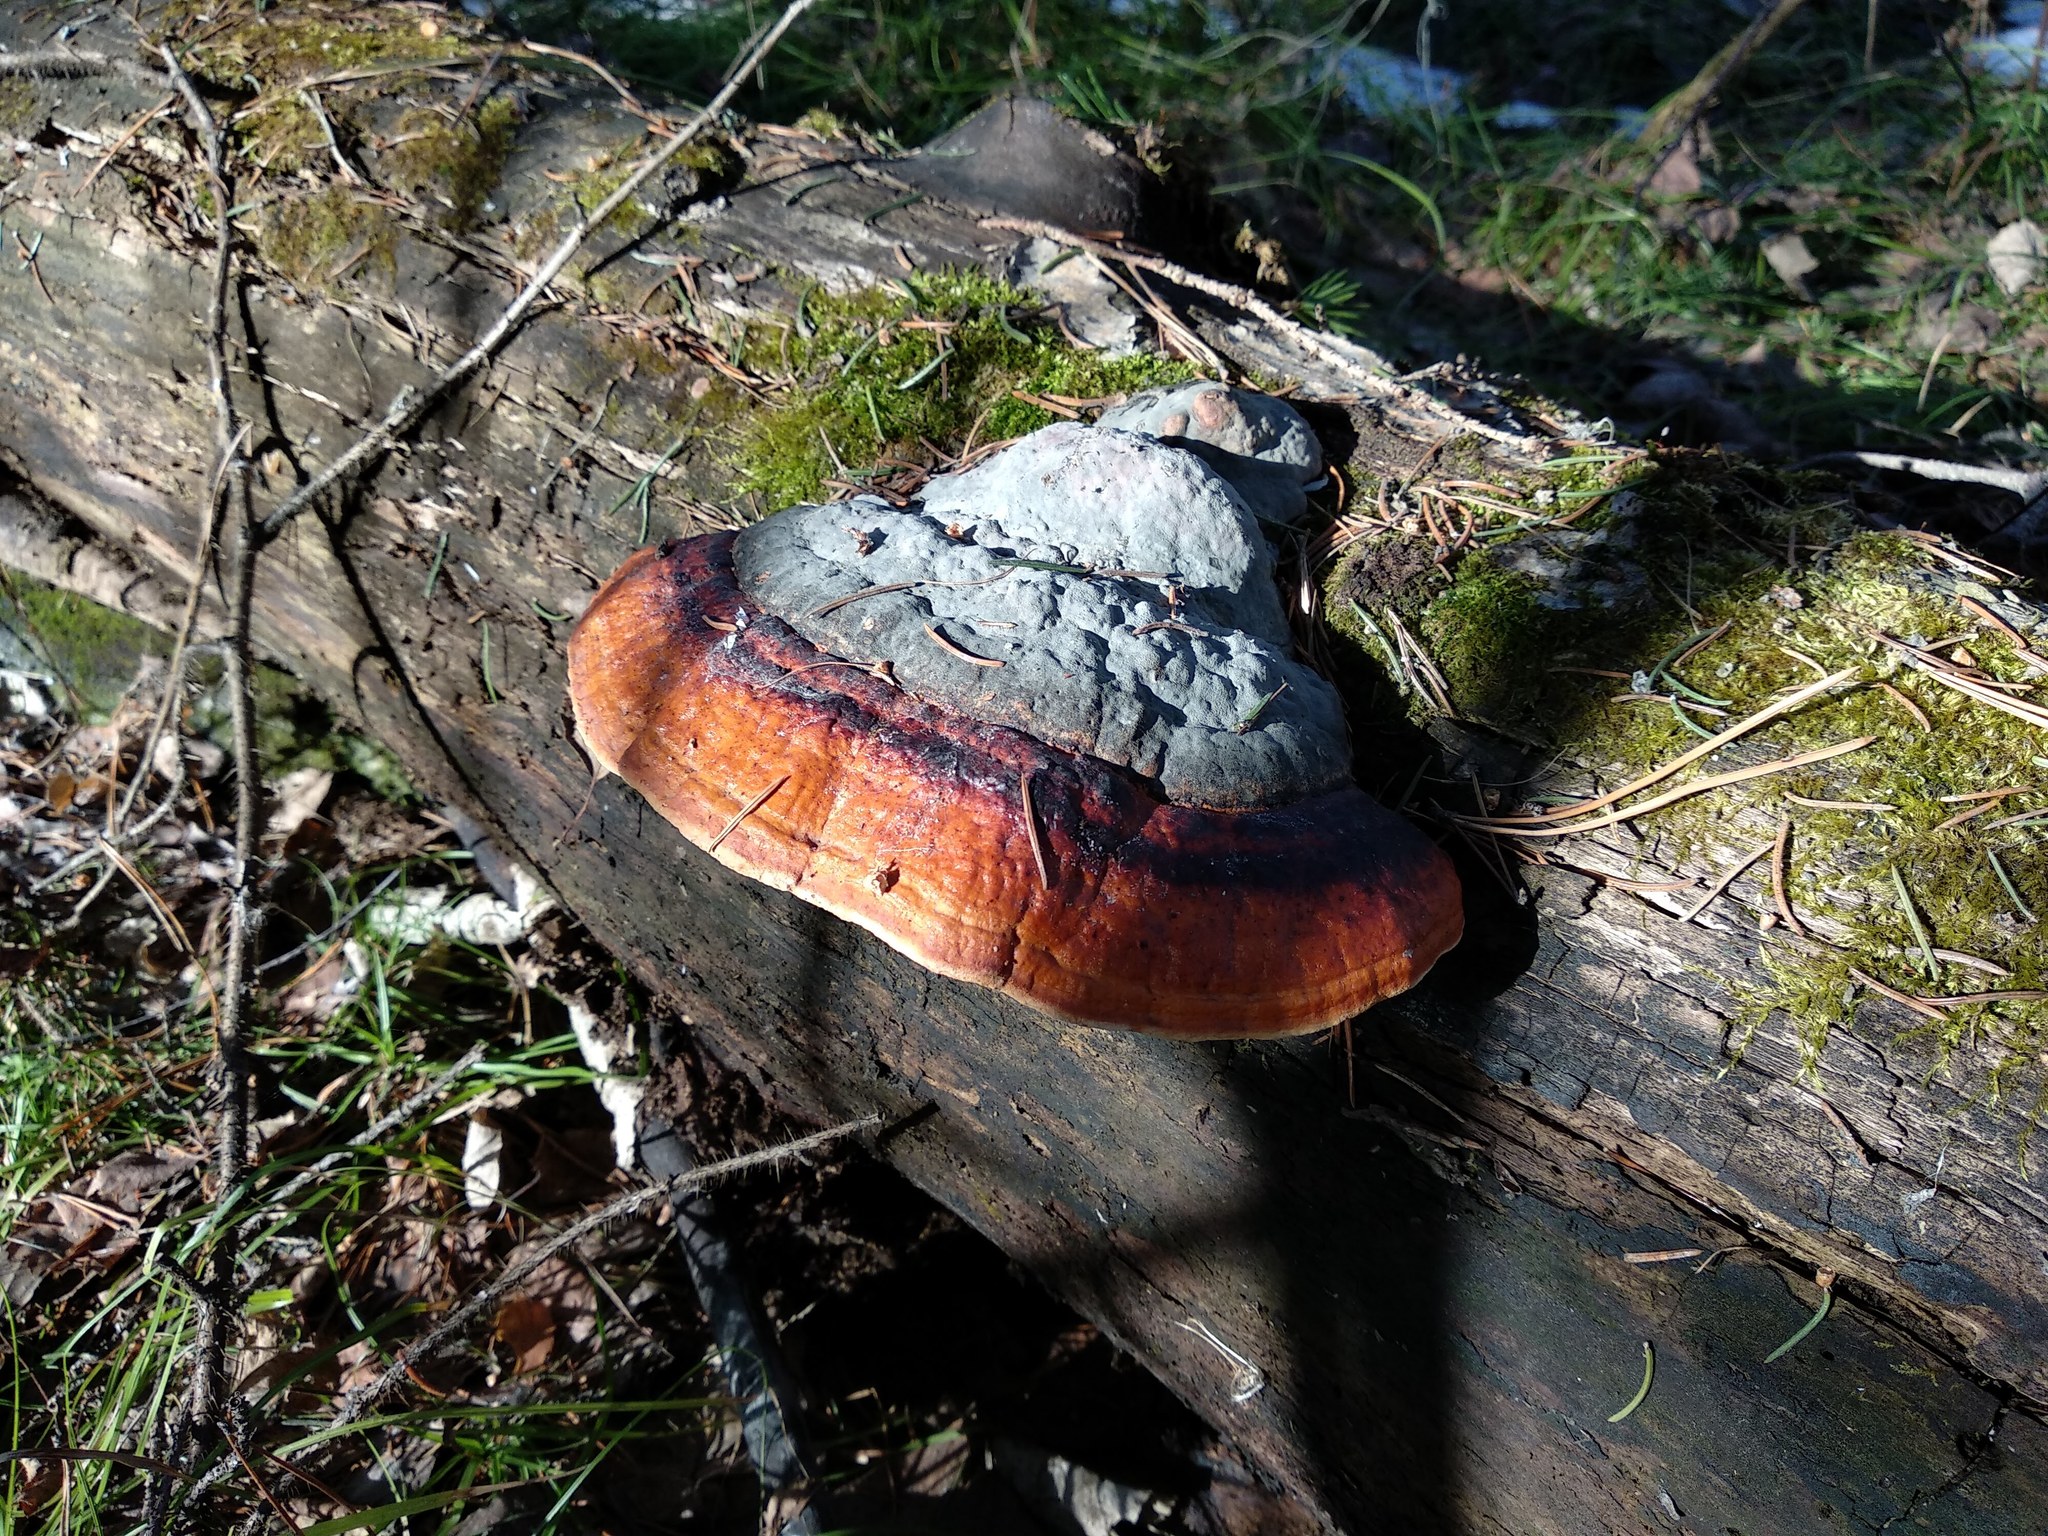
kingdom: Fungi
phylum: Basidiomycota
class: Agaricomycetes
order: Polyporales
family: Fomitopsidaceae
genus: Fomitopsis
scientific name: Fomitopsis pinicola
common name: Red-belted bracket
